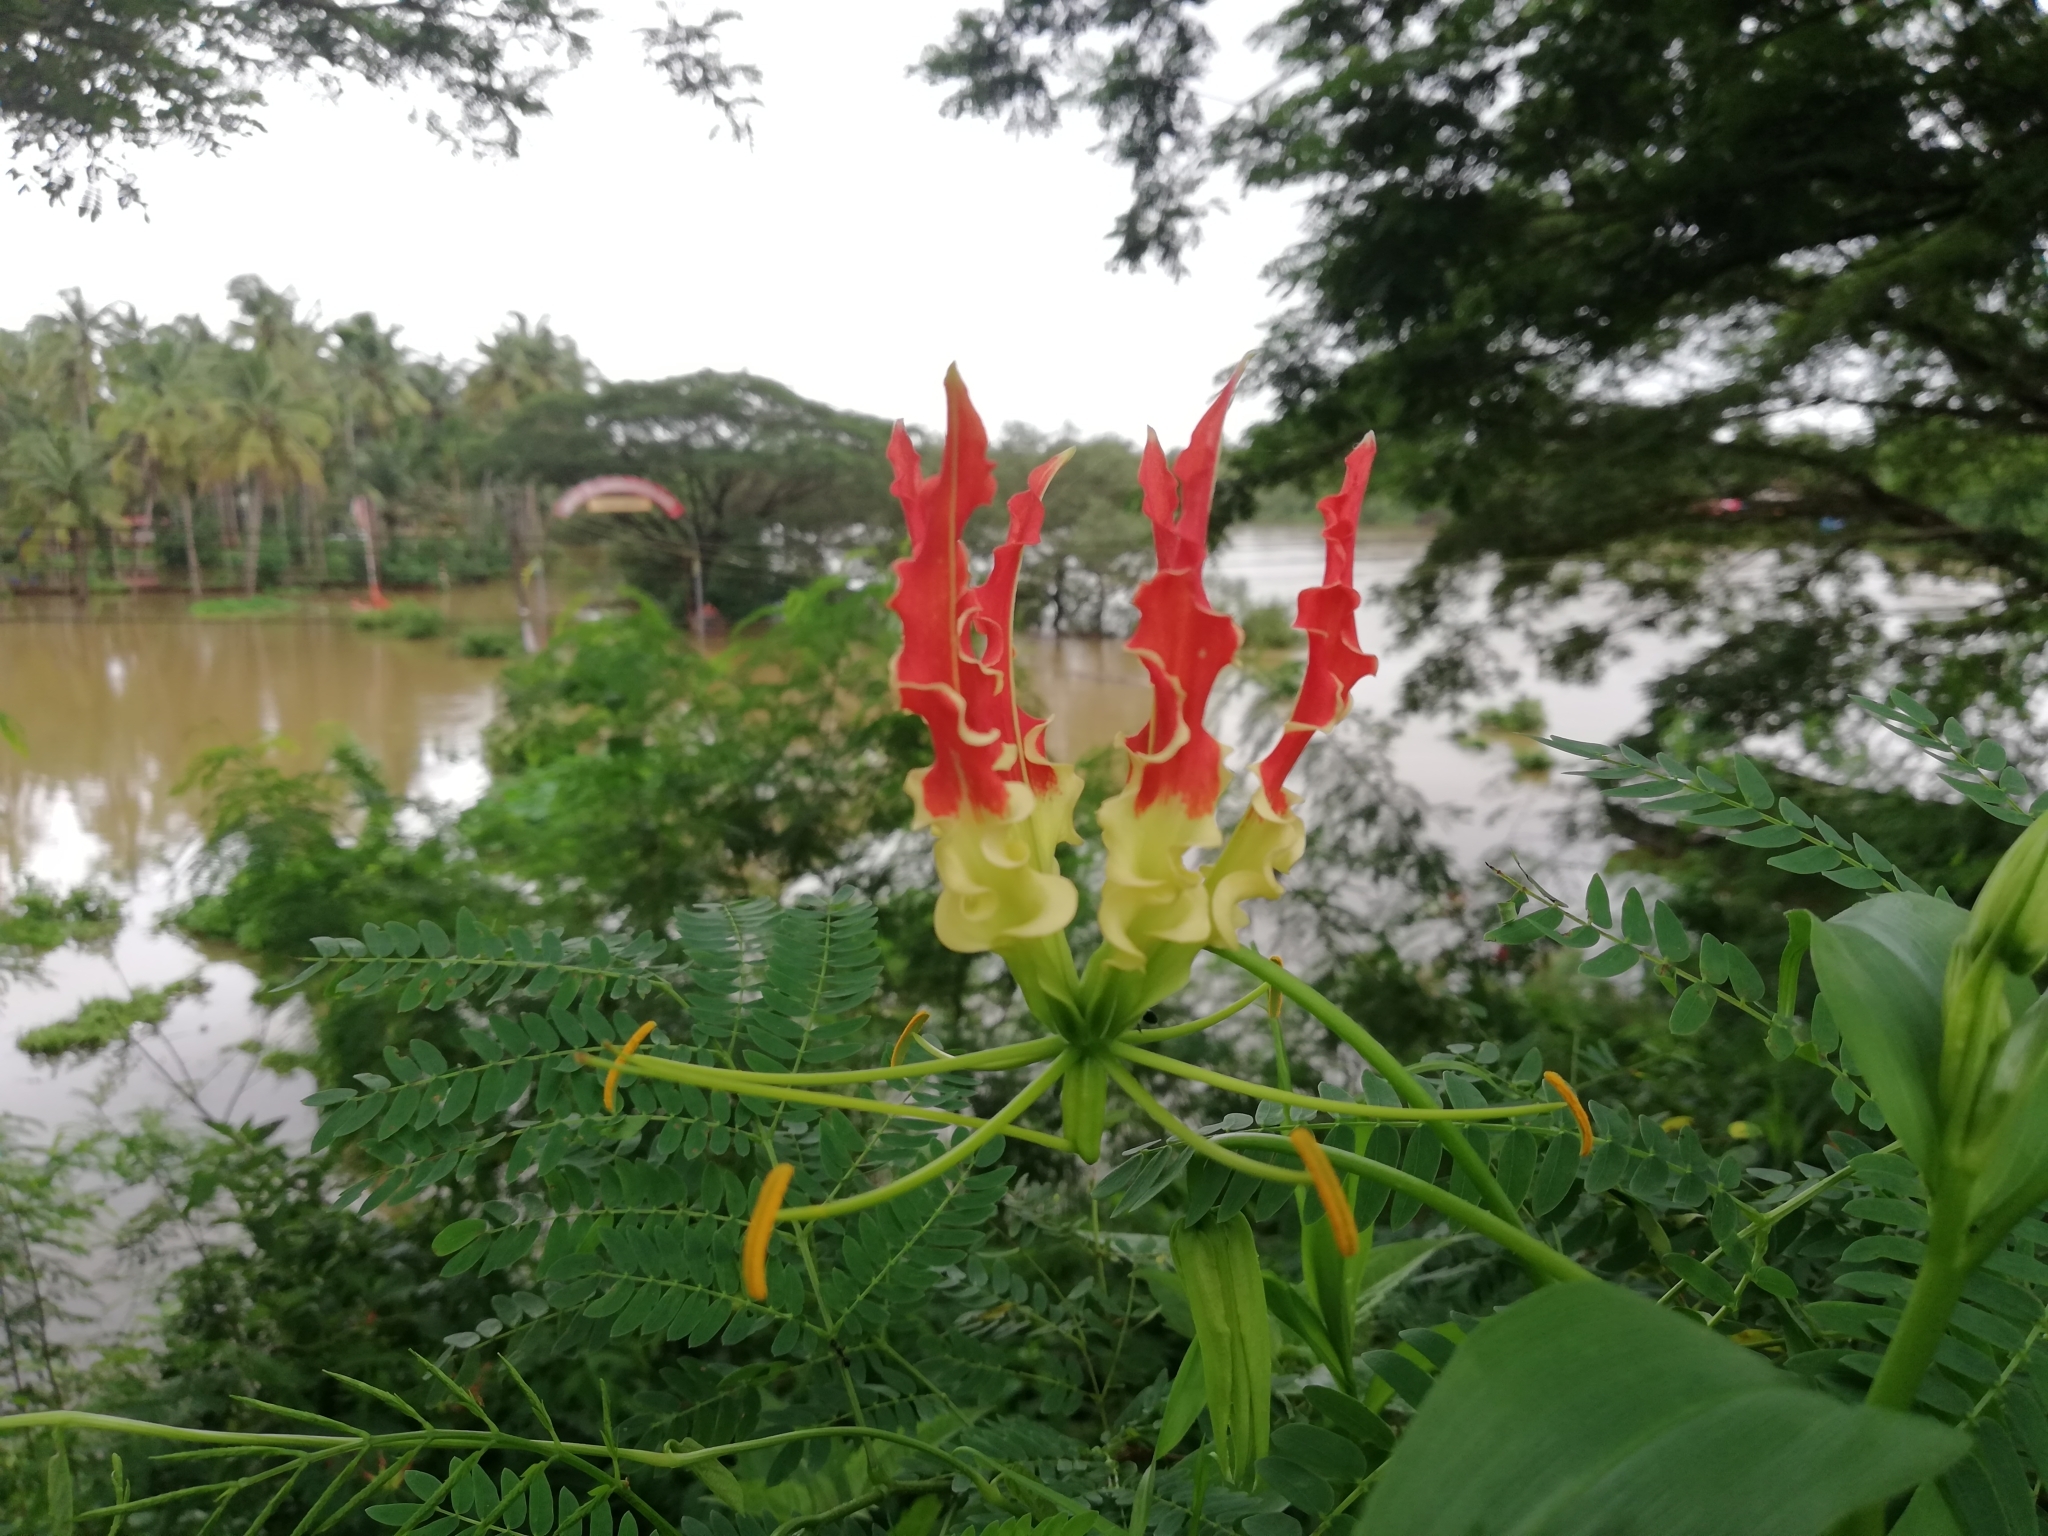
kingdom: Plantae
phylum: Tracheophyta
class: Liliopsida
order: Liliales
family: Colchicaceae
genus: Gloriosa
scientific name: Gloriosa superba
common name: Flame lily
